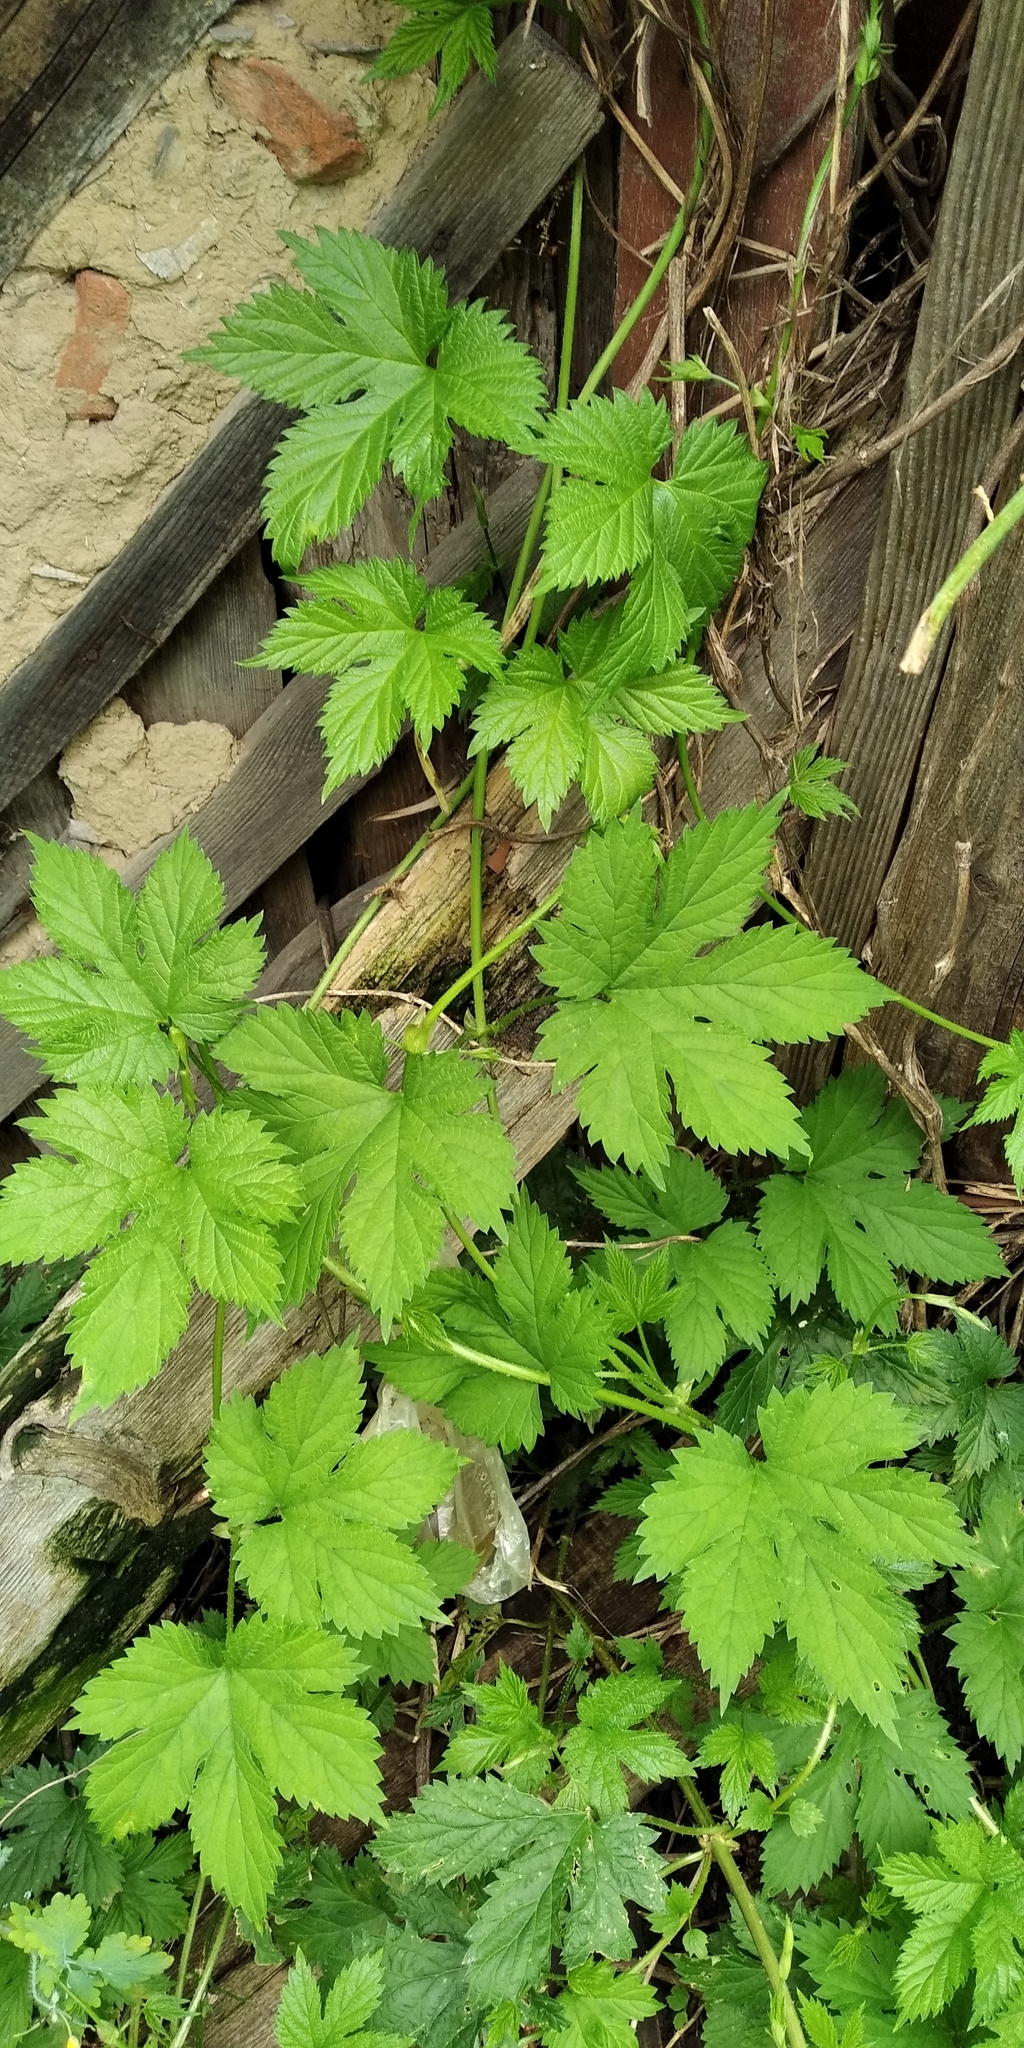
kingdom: Plantae
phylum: Tracheophyta
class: Magnoliopsida
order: Rosales
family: Cannabaceae
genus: Humulus
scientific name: Humulus lupulus
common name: Hop
